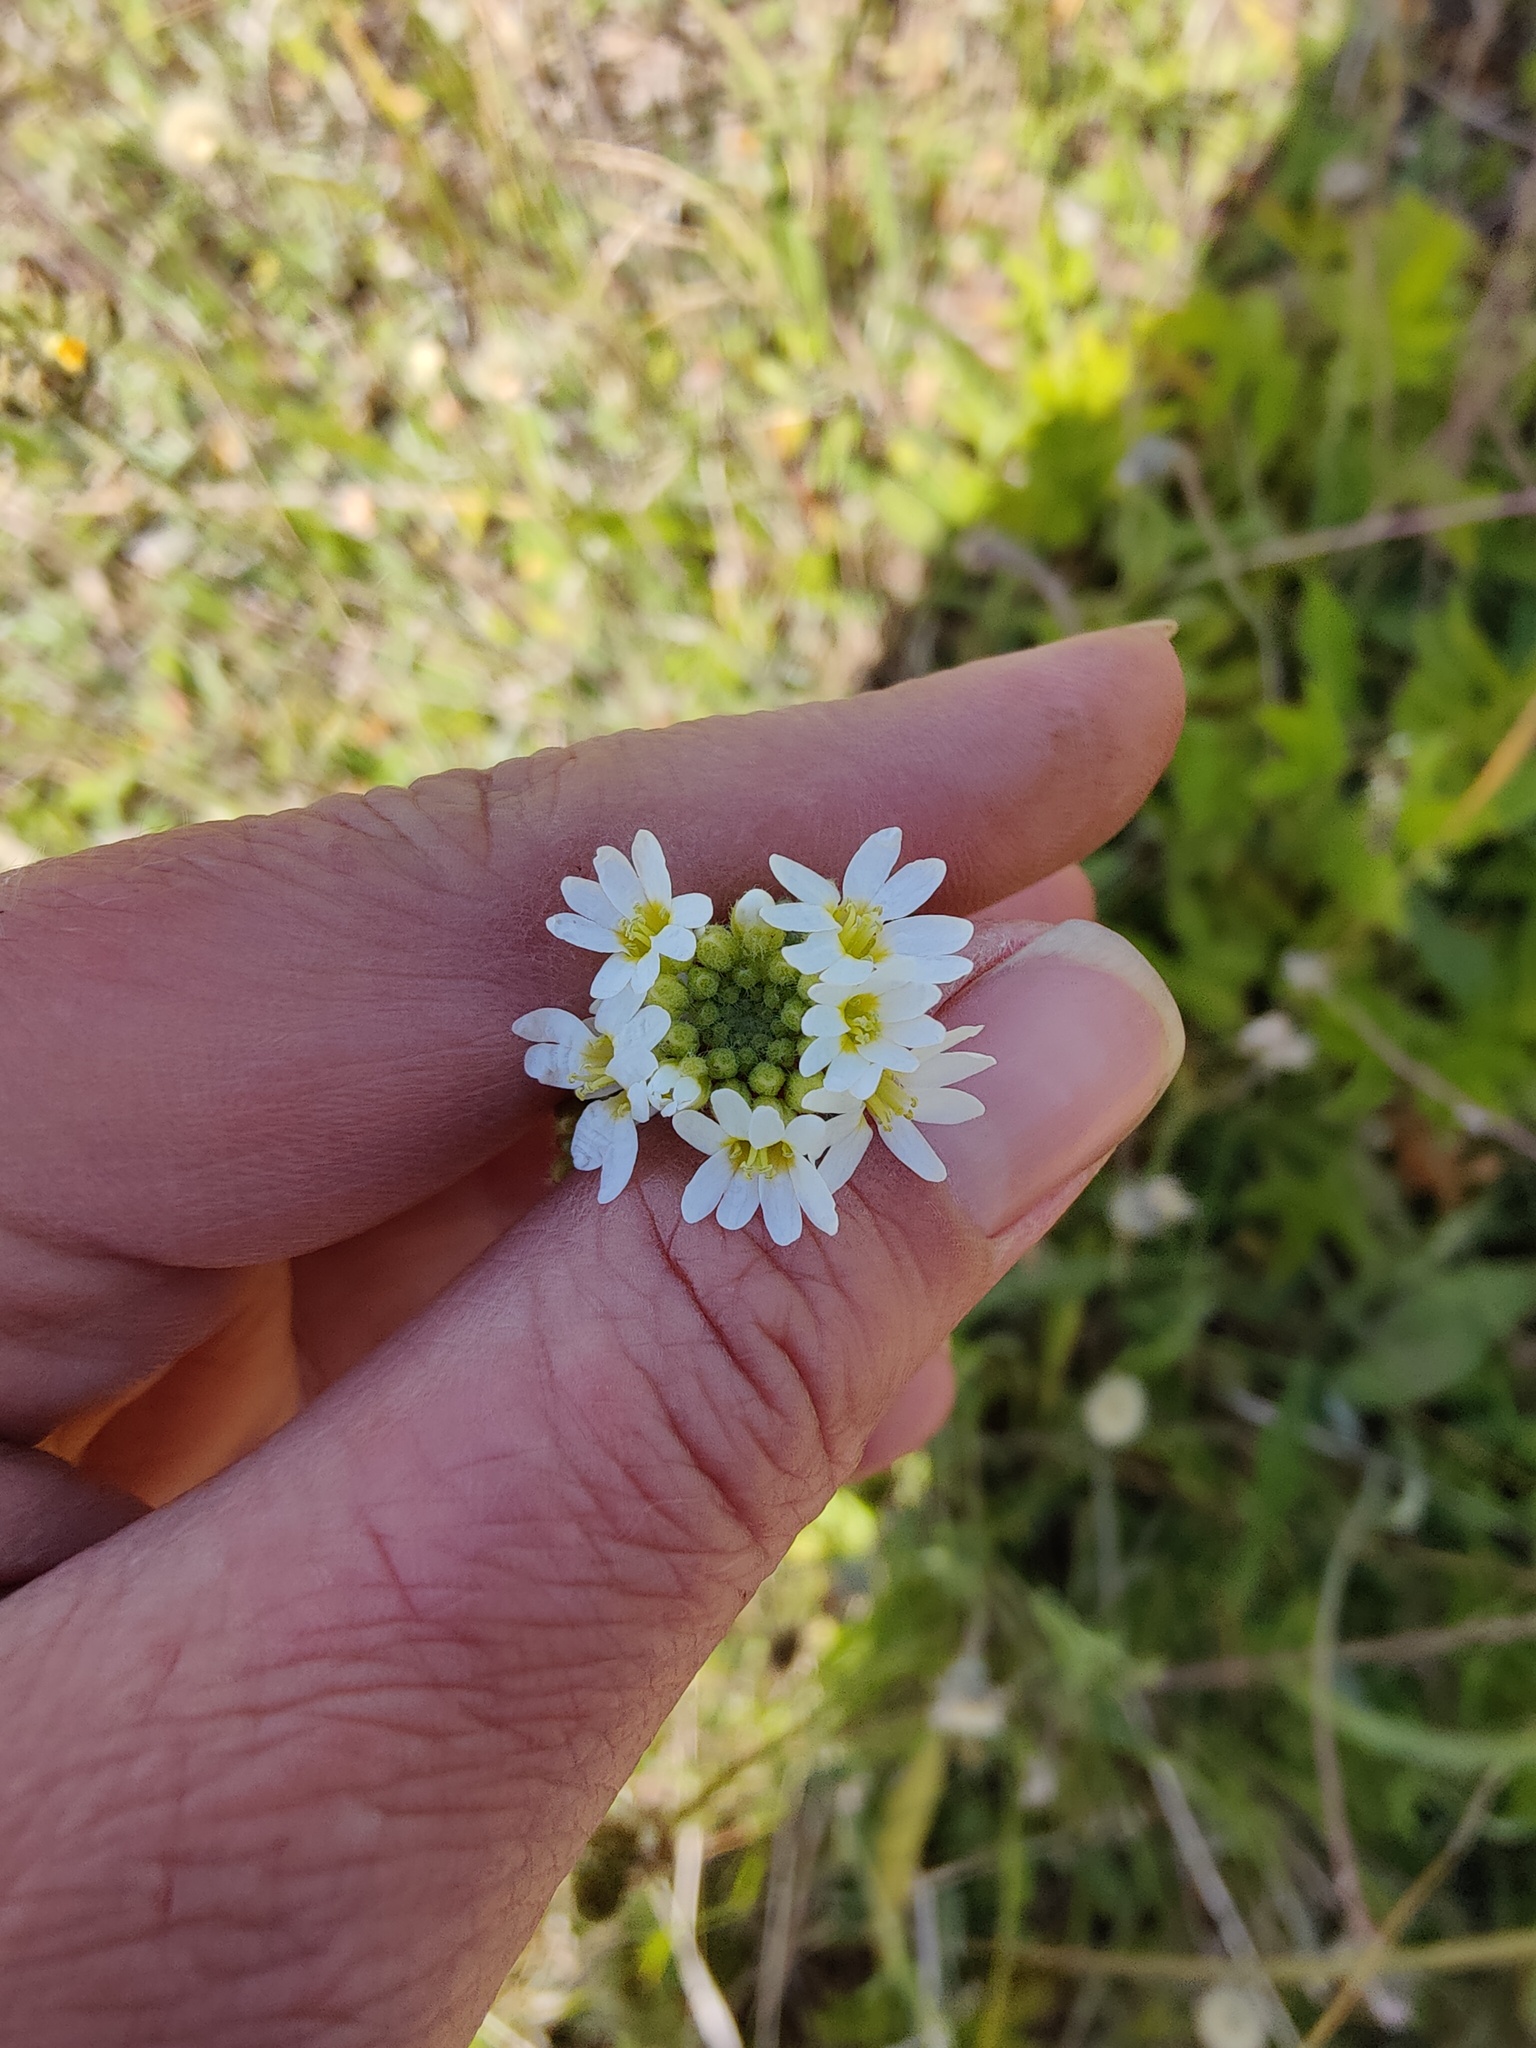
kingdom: Plantae
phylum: Tracheophyta
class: Magnoliopsida
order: Brassicales
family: Brassicaceae
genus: Berteroa
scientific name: Berteroa incana
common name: Hoary alison
